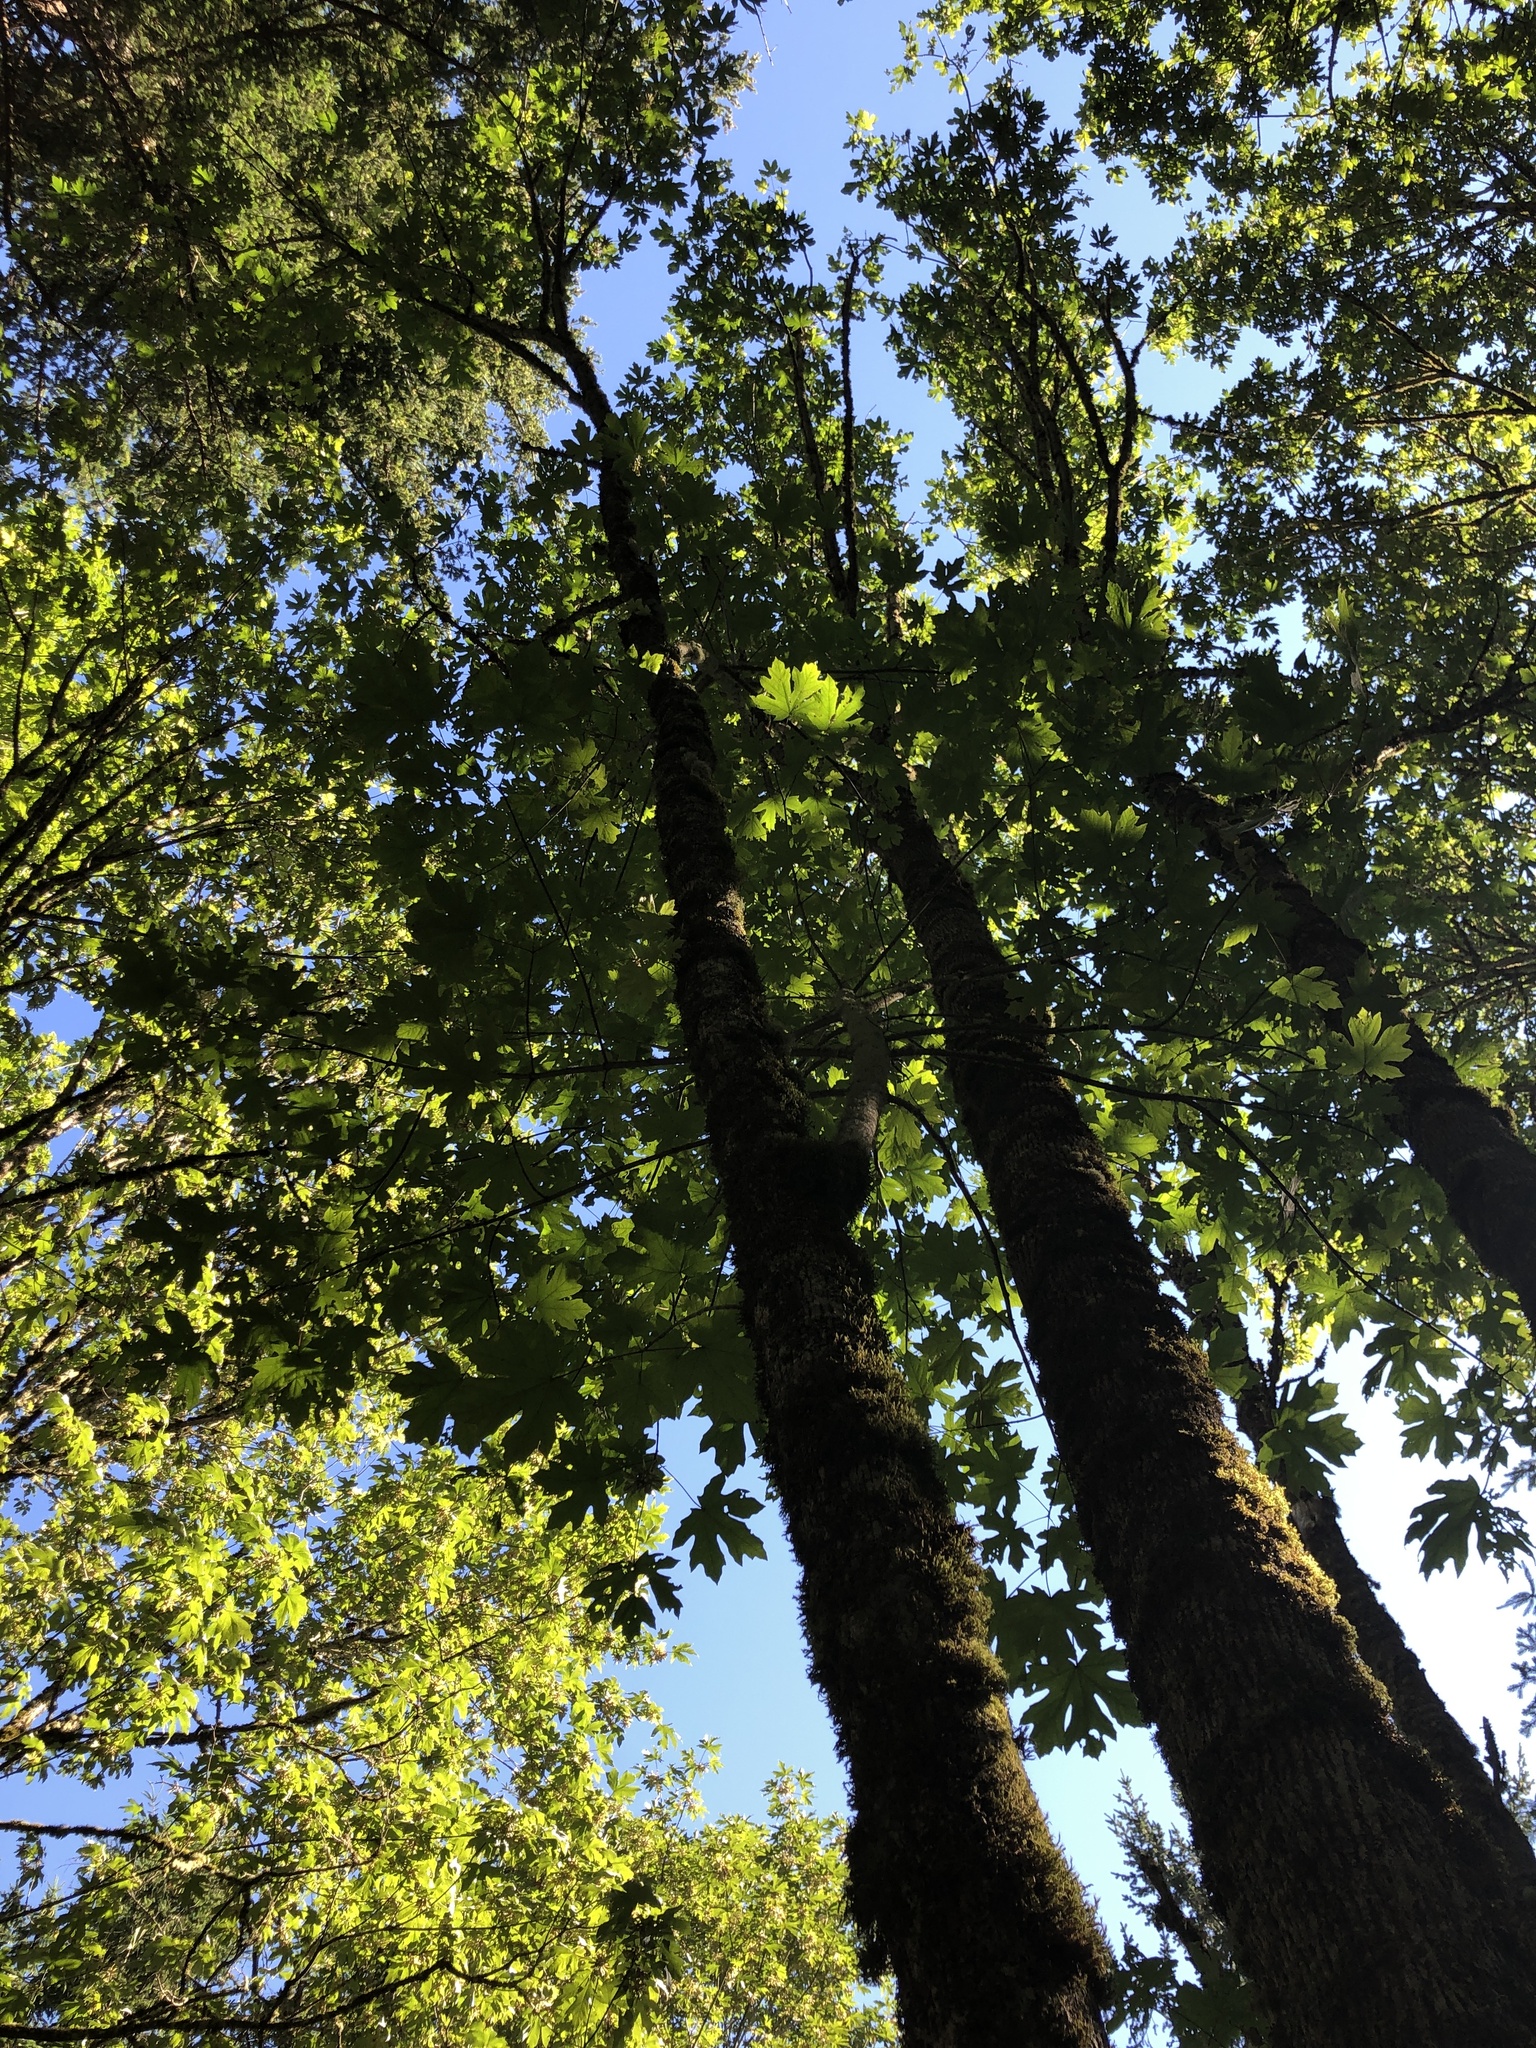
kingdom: Plantae
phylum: Tracheophyta
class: Magnoliopsida
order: Sapindales
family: Sapindaceae
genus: Acer
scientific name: Acer macrophyllum
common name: Oregon maple
